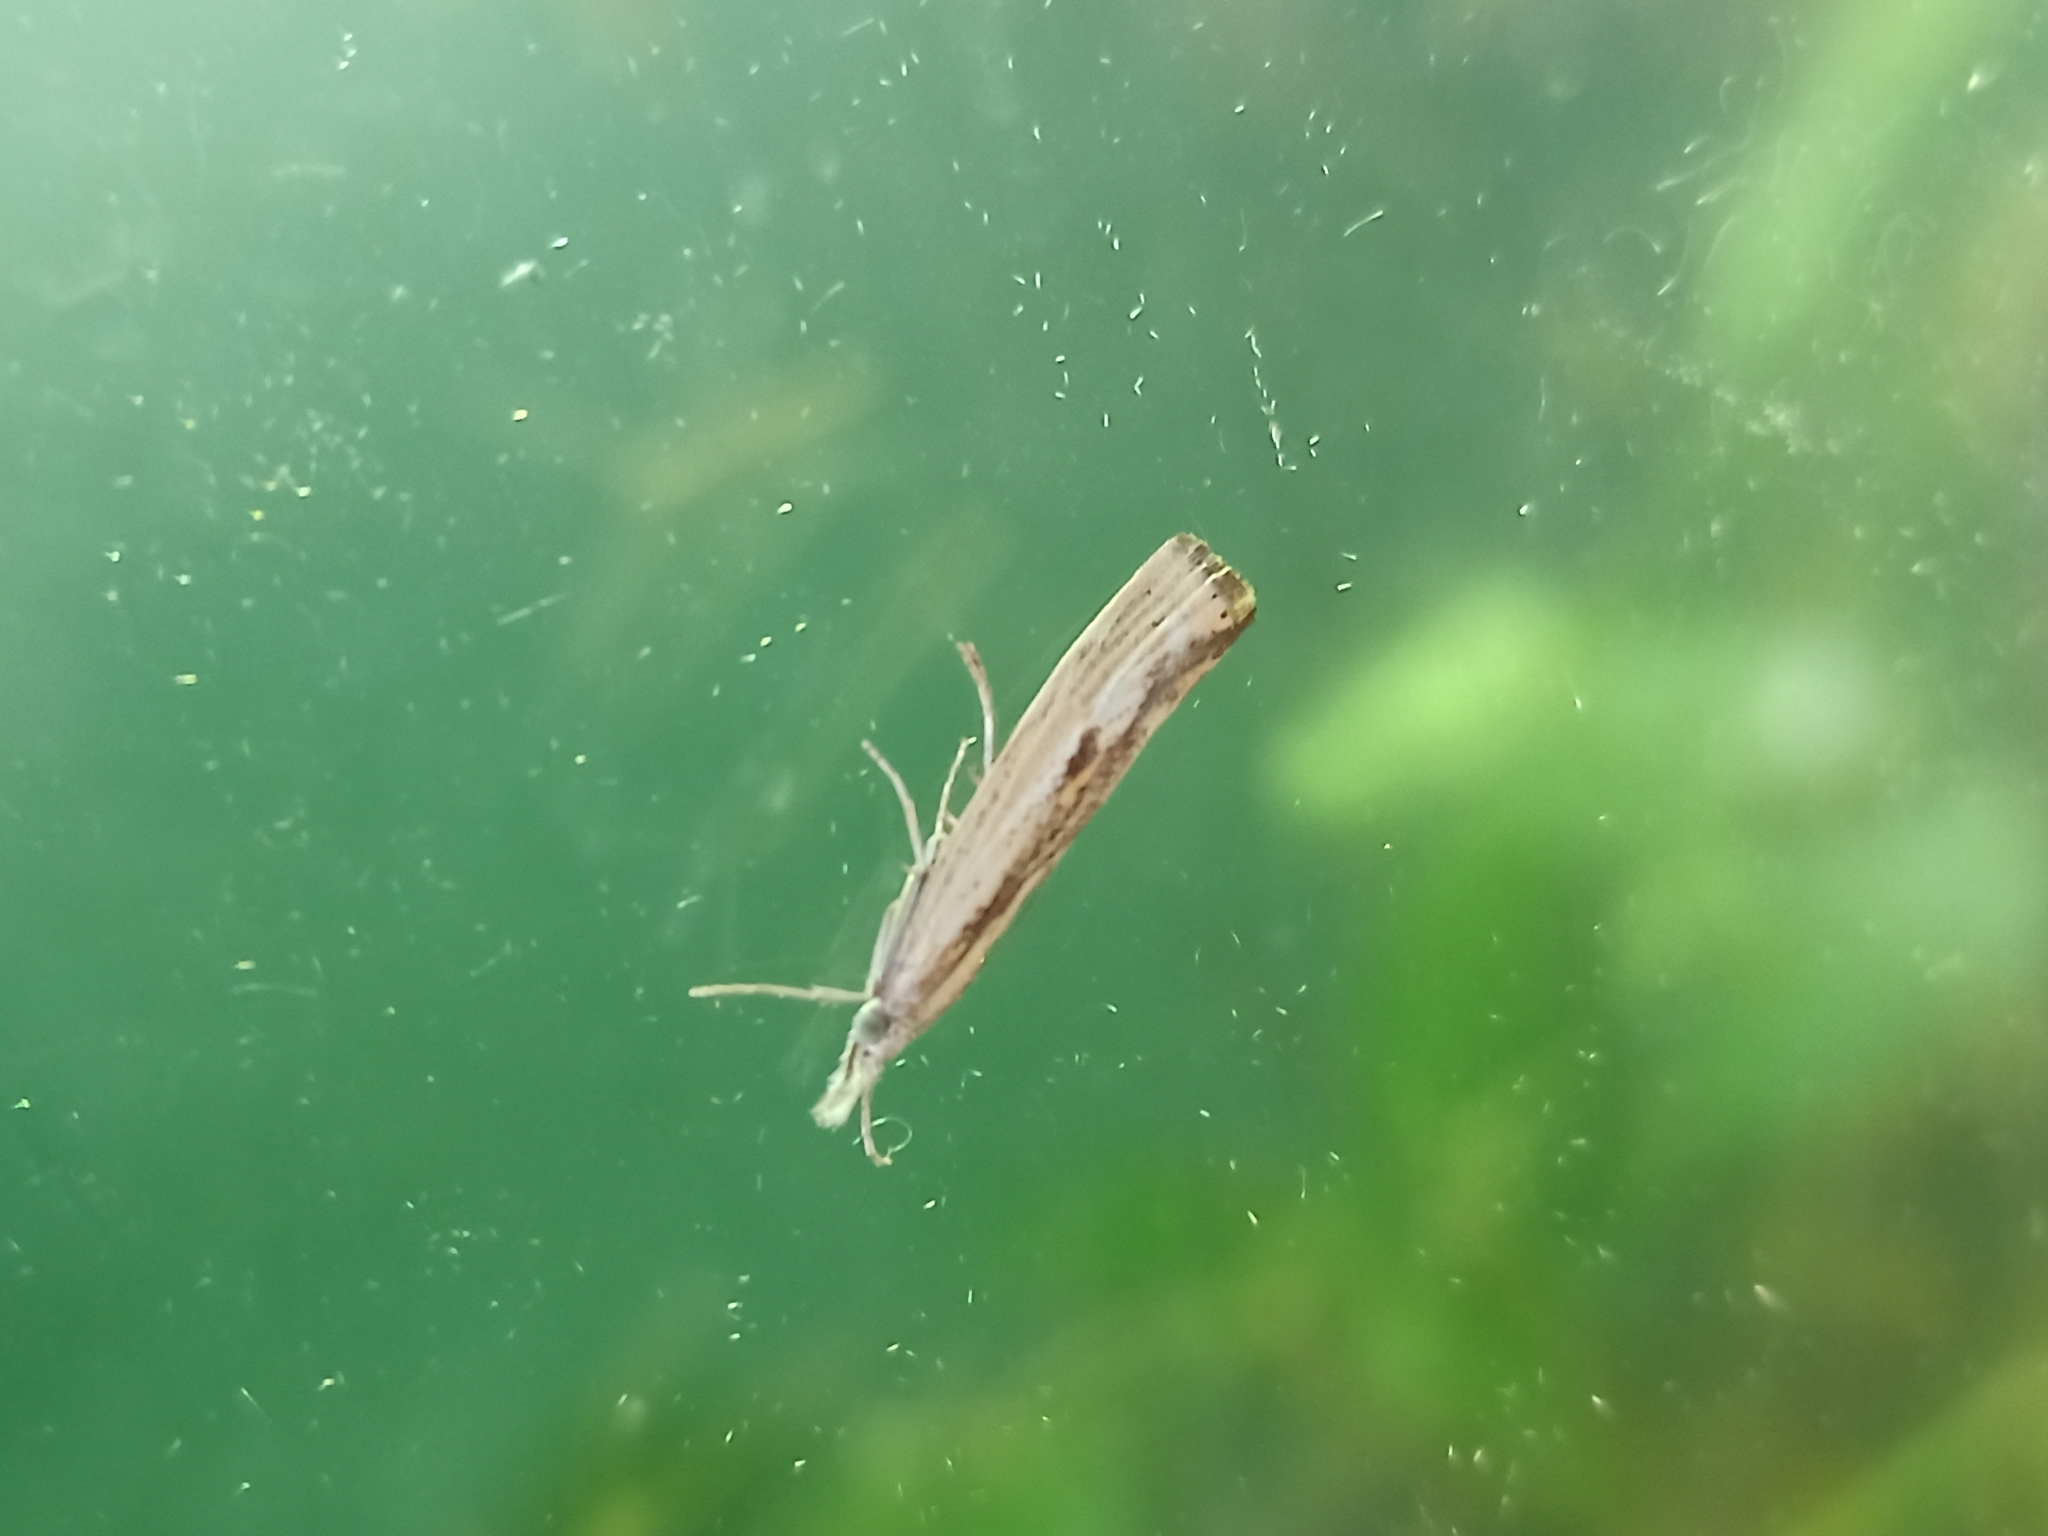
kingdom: Animalia
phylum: Arthropoda
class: Insecta
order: Lepidoptera
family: Crambidae
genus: Agriphila
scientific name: Agriphila inquinatella
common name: Barred grass-veneer
